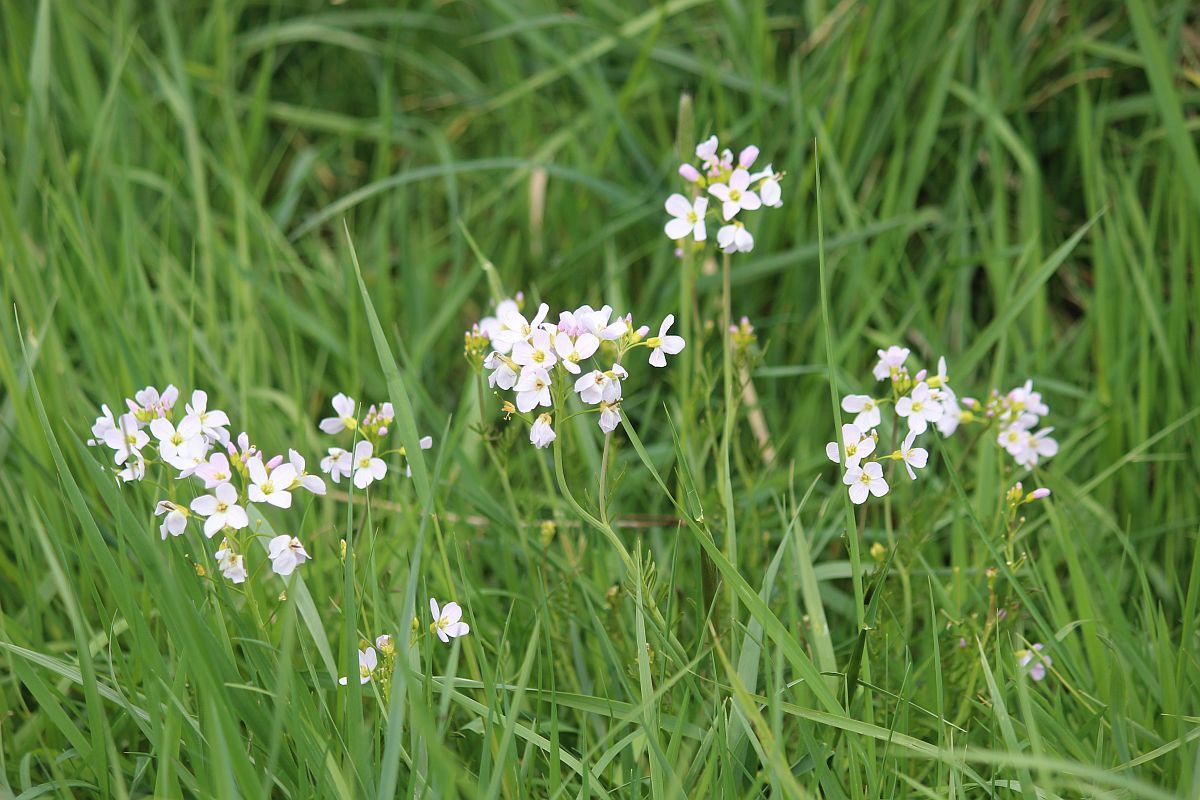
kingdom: Plantae
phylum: Tracheophyta
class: Magnoliopsida
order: Brassicales
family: Brassicaceae
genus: Cardamine
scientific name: Cardamine pratensis
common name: Cuckoo flower
